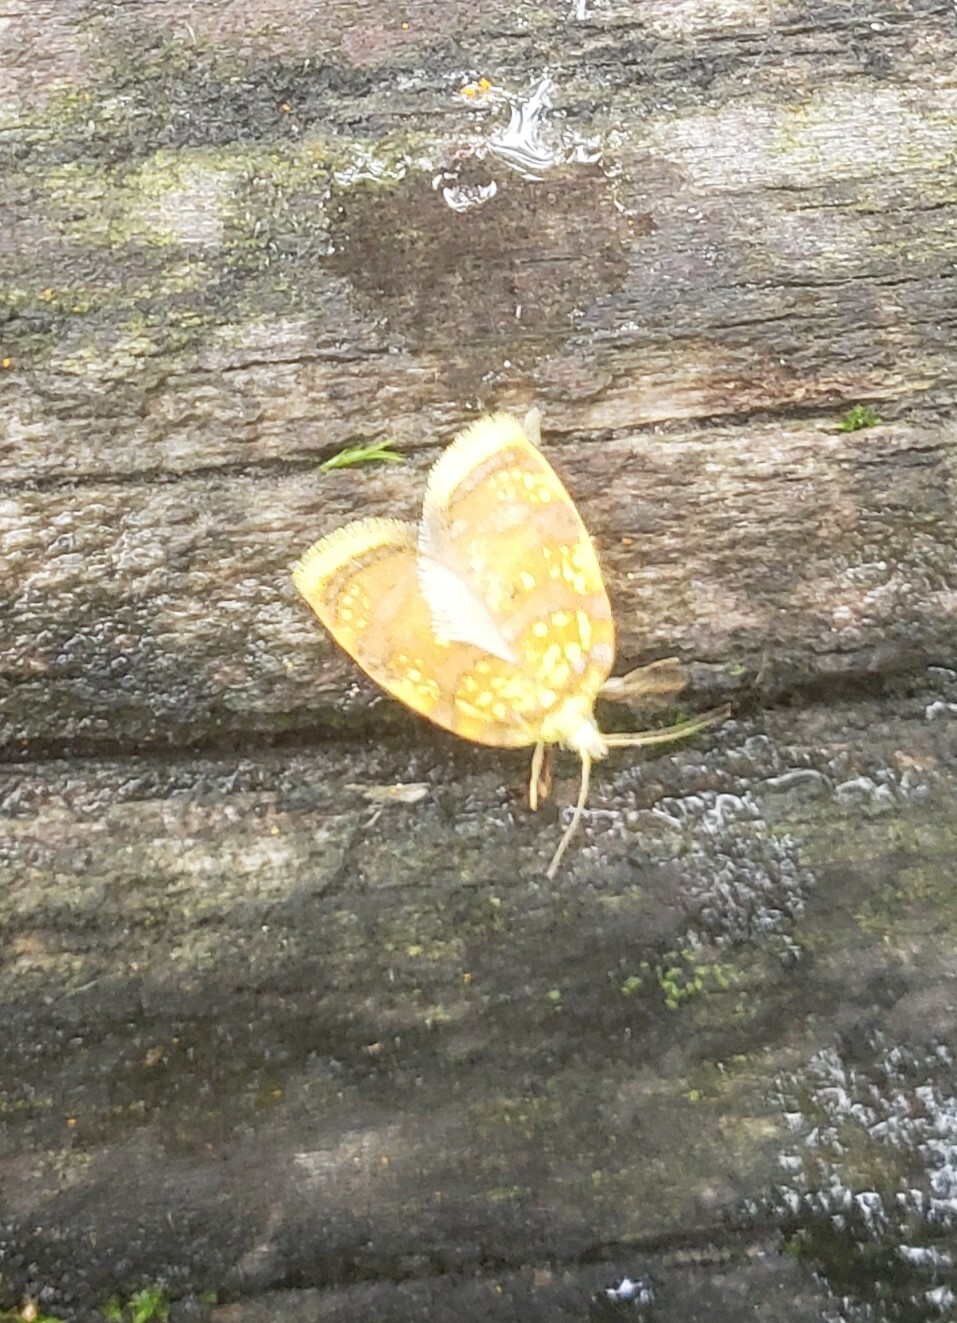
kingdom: Animalia
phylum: Arthropoda
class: Insecta
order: Lepidoptera
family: Tortricidae
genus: Acleris
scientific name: Acleris albicomana
